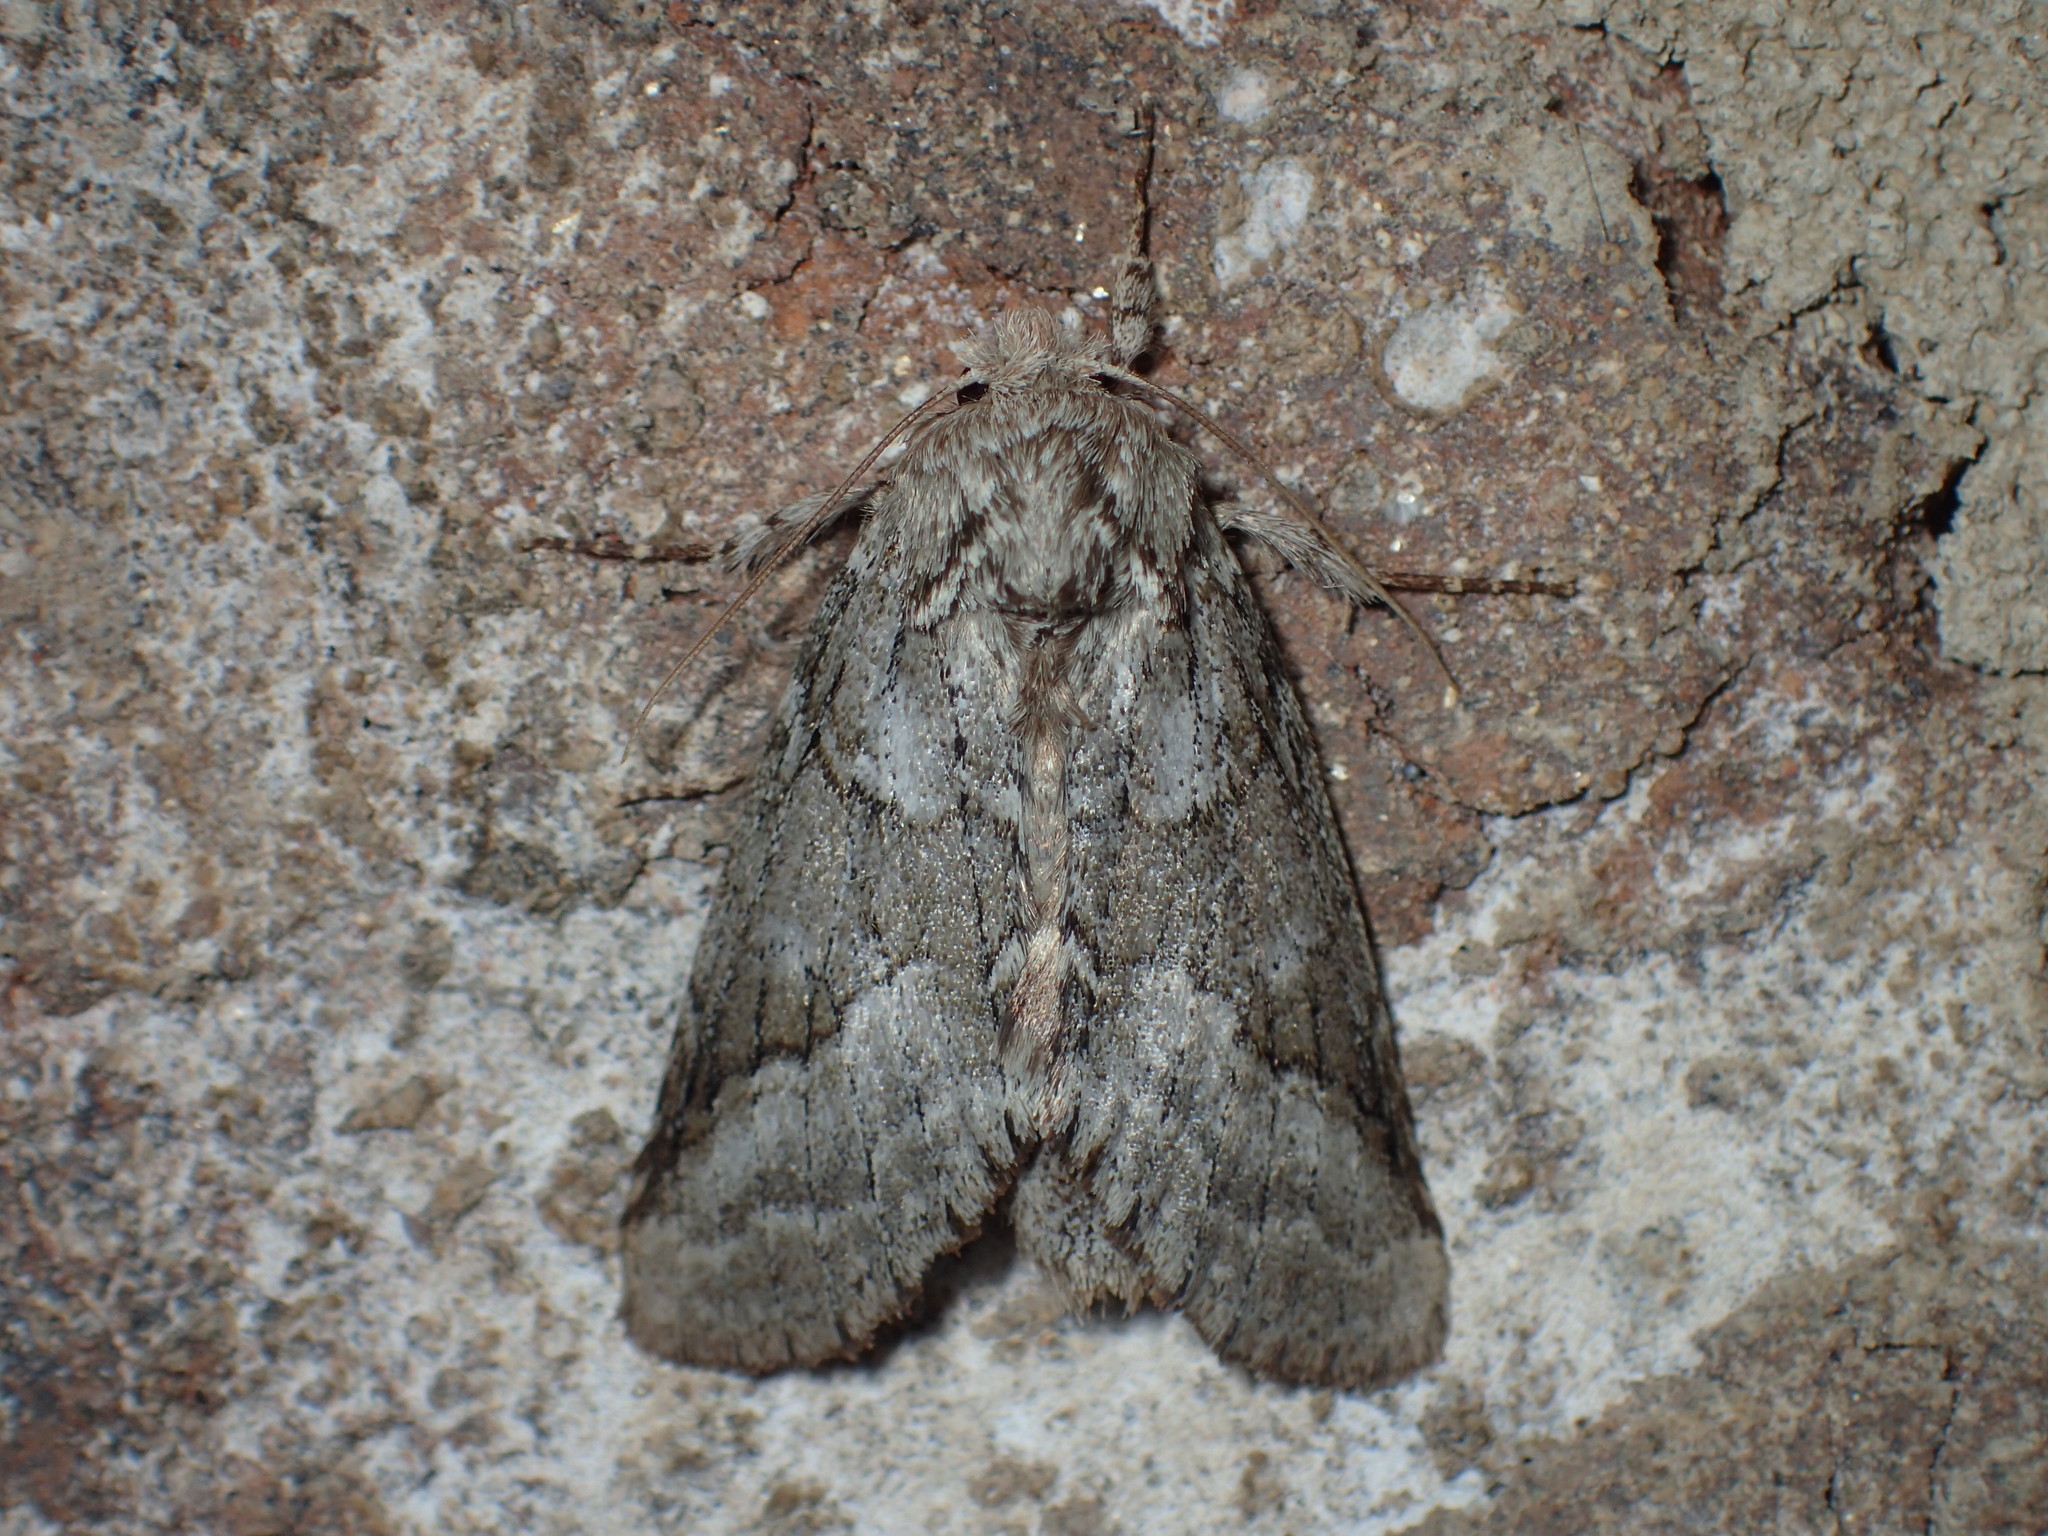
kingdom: Animalia
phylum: Arthropoda
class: Insecta
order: Lepidoptera
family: Notodontidae
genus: Lochmaeus
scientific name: Lochmaeus bilineata
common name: Double-lined prominent
